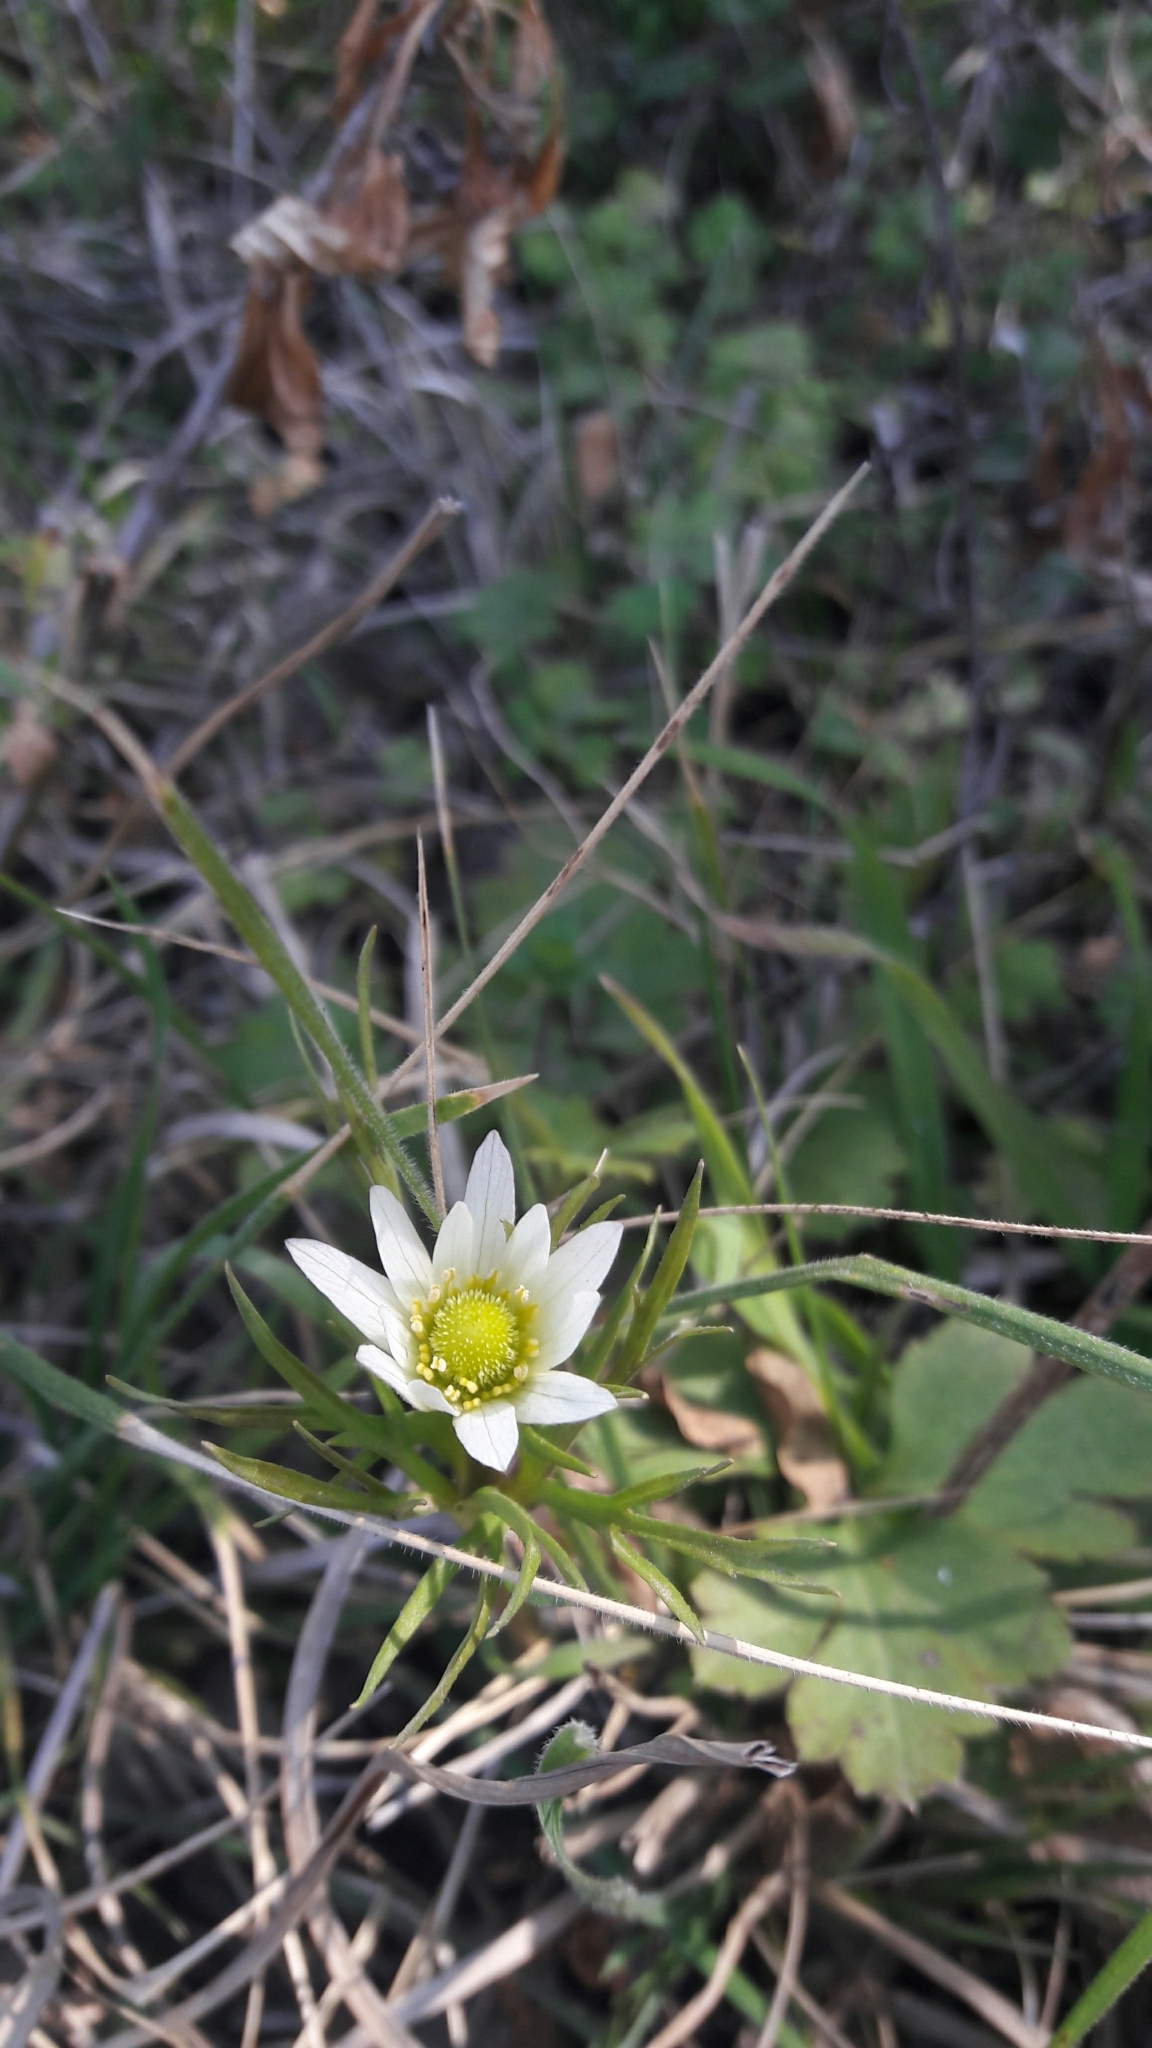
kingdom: Plantae
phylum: Tracheophyta
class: Magnoliopsida
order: Ranunculales
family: Ranunculaceae
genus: Anemone
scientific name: Anemone decapetala
